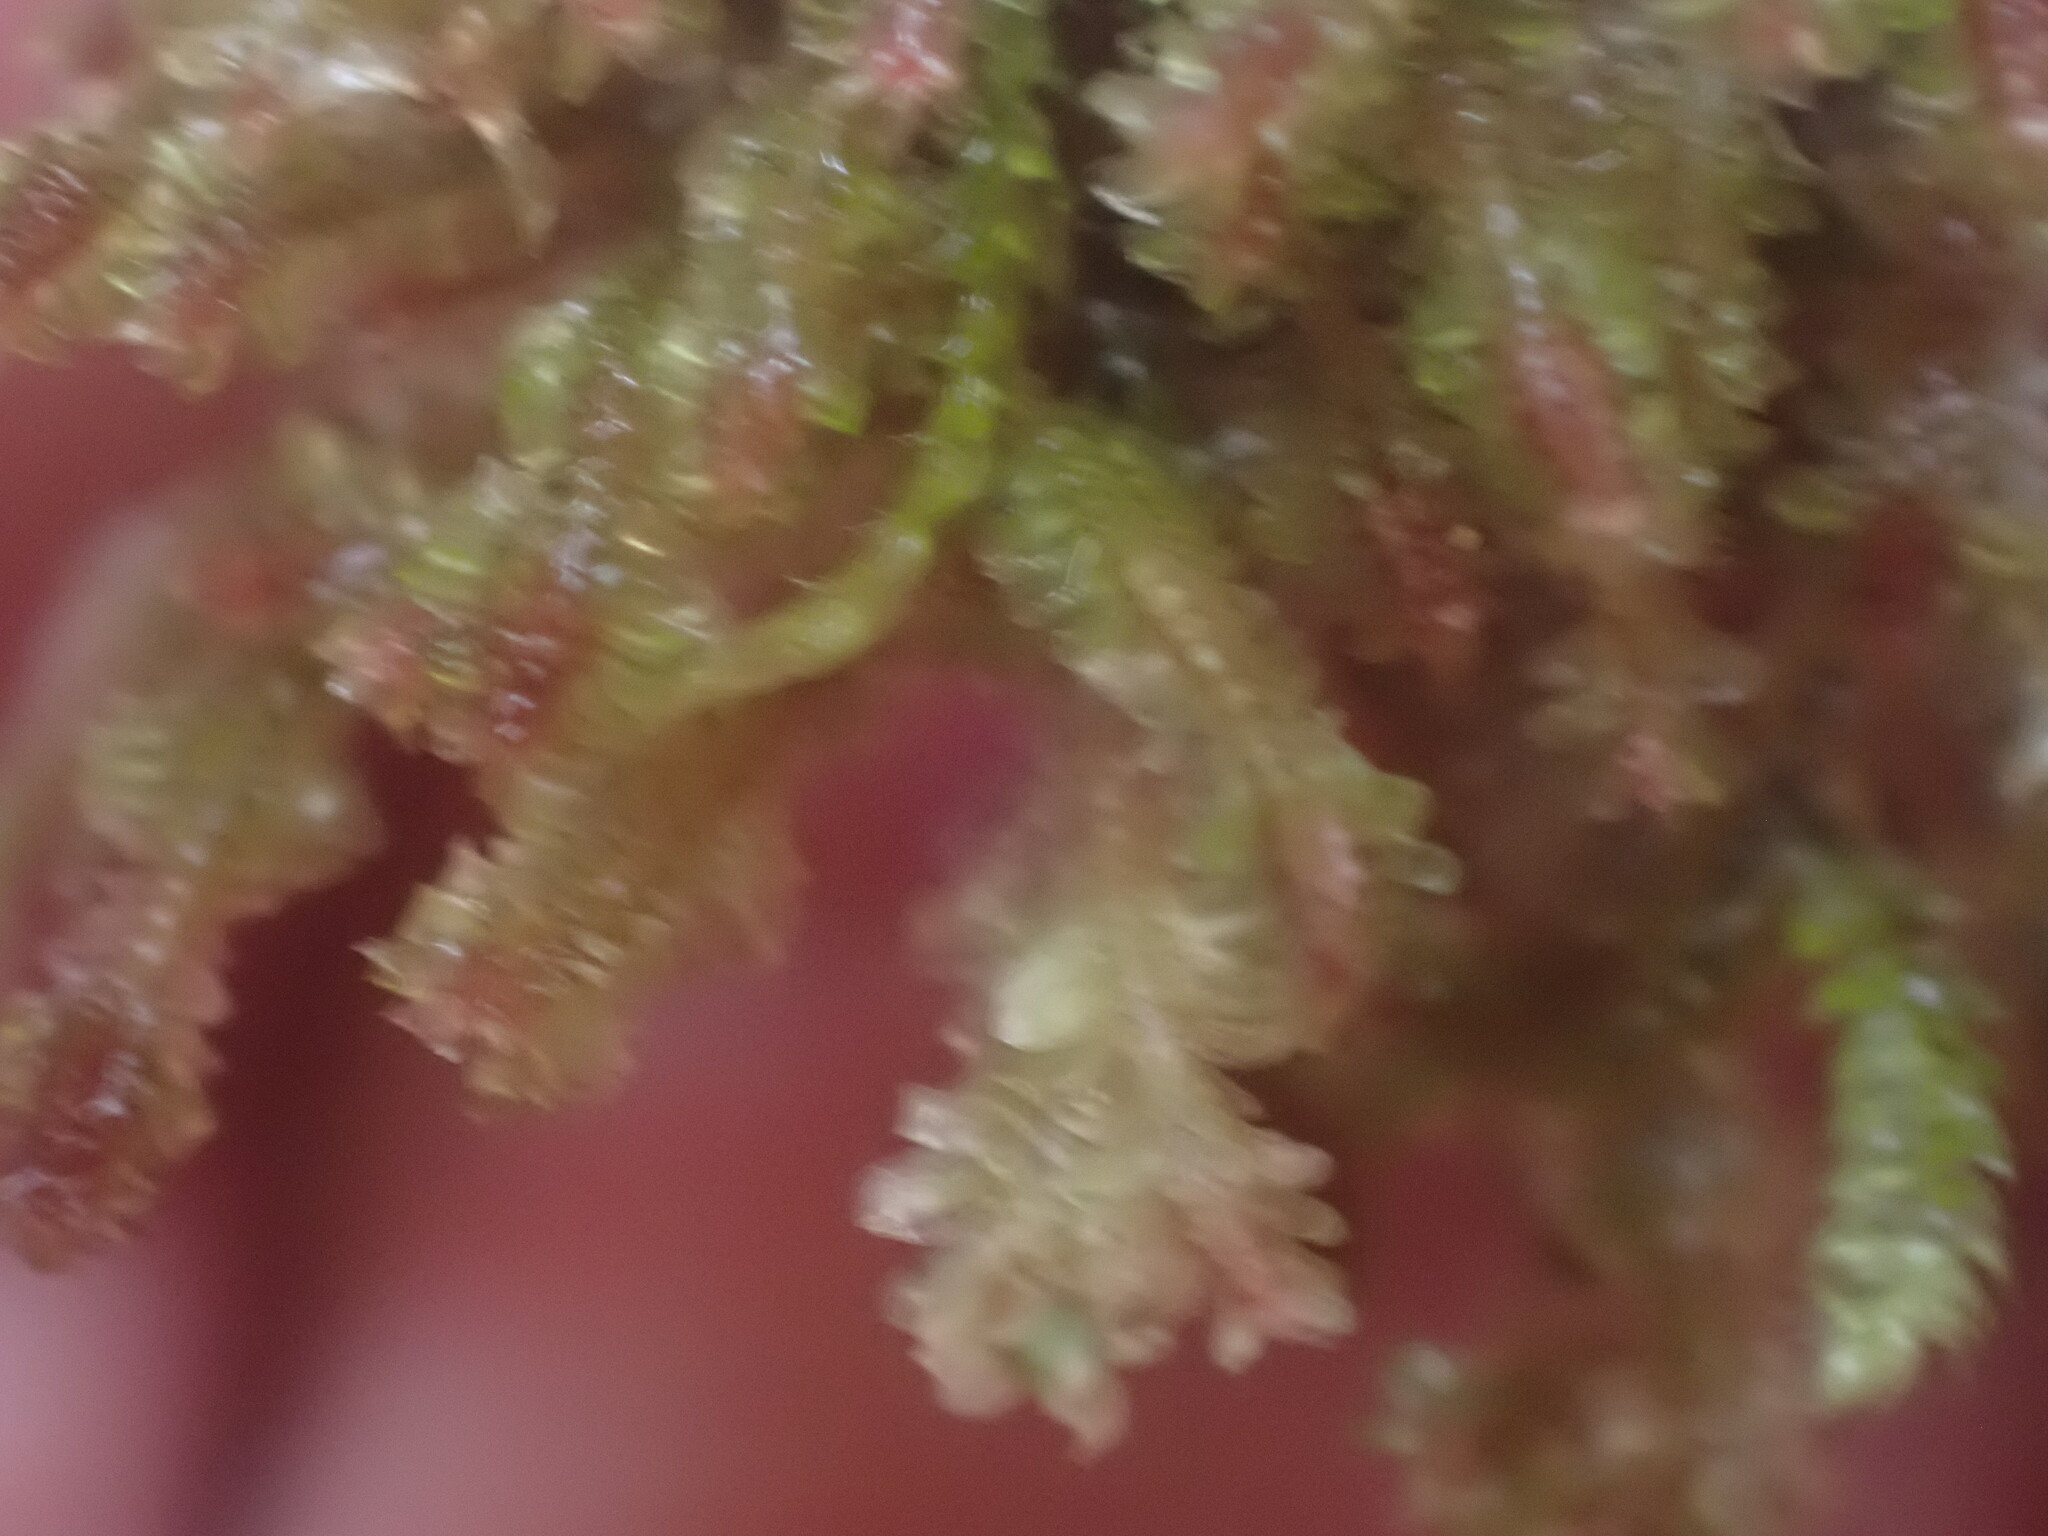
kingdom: Plantae
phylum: Marchantiophyta
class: Jungermanniopsida
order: Jungermanniales
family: Scapaniaceae
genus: Diplophyllum
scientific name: Diplophyllum albicans
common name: White earwort
